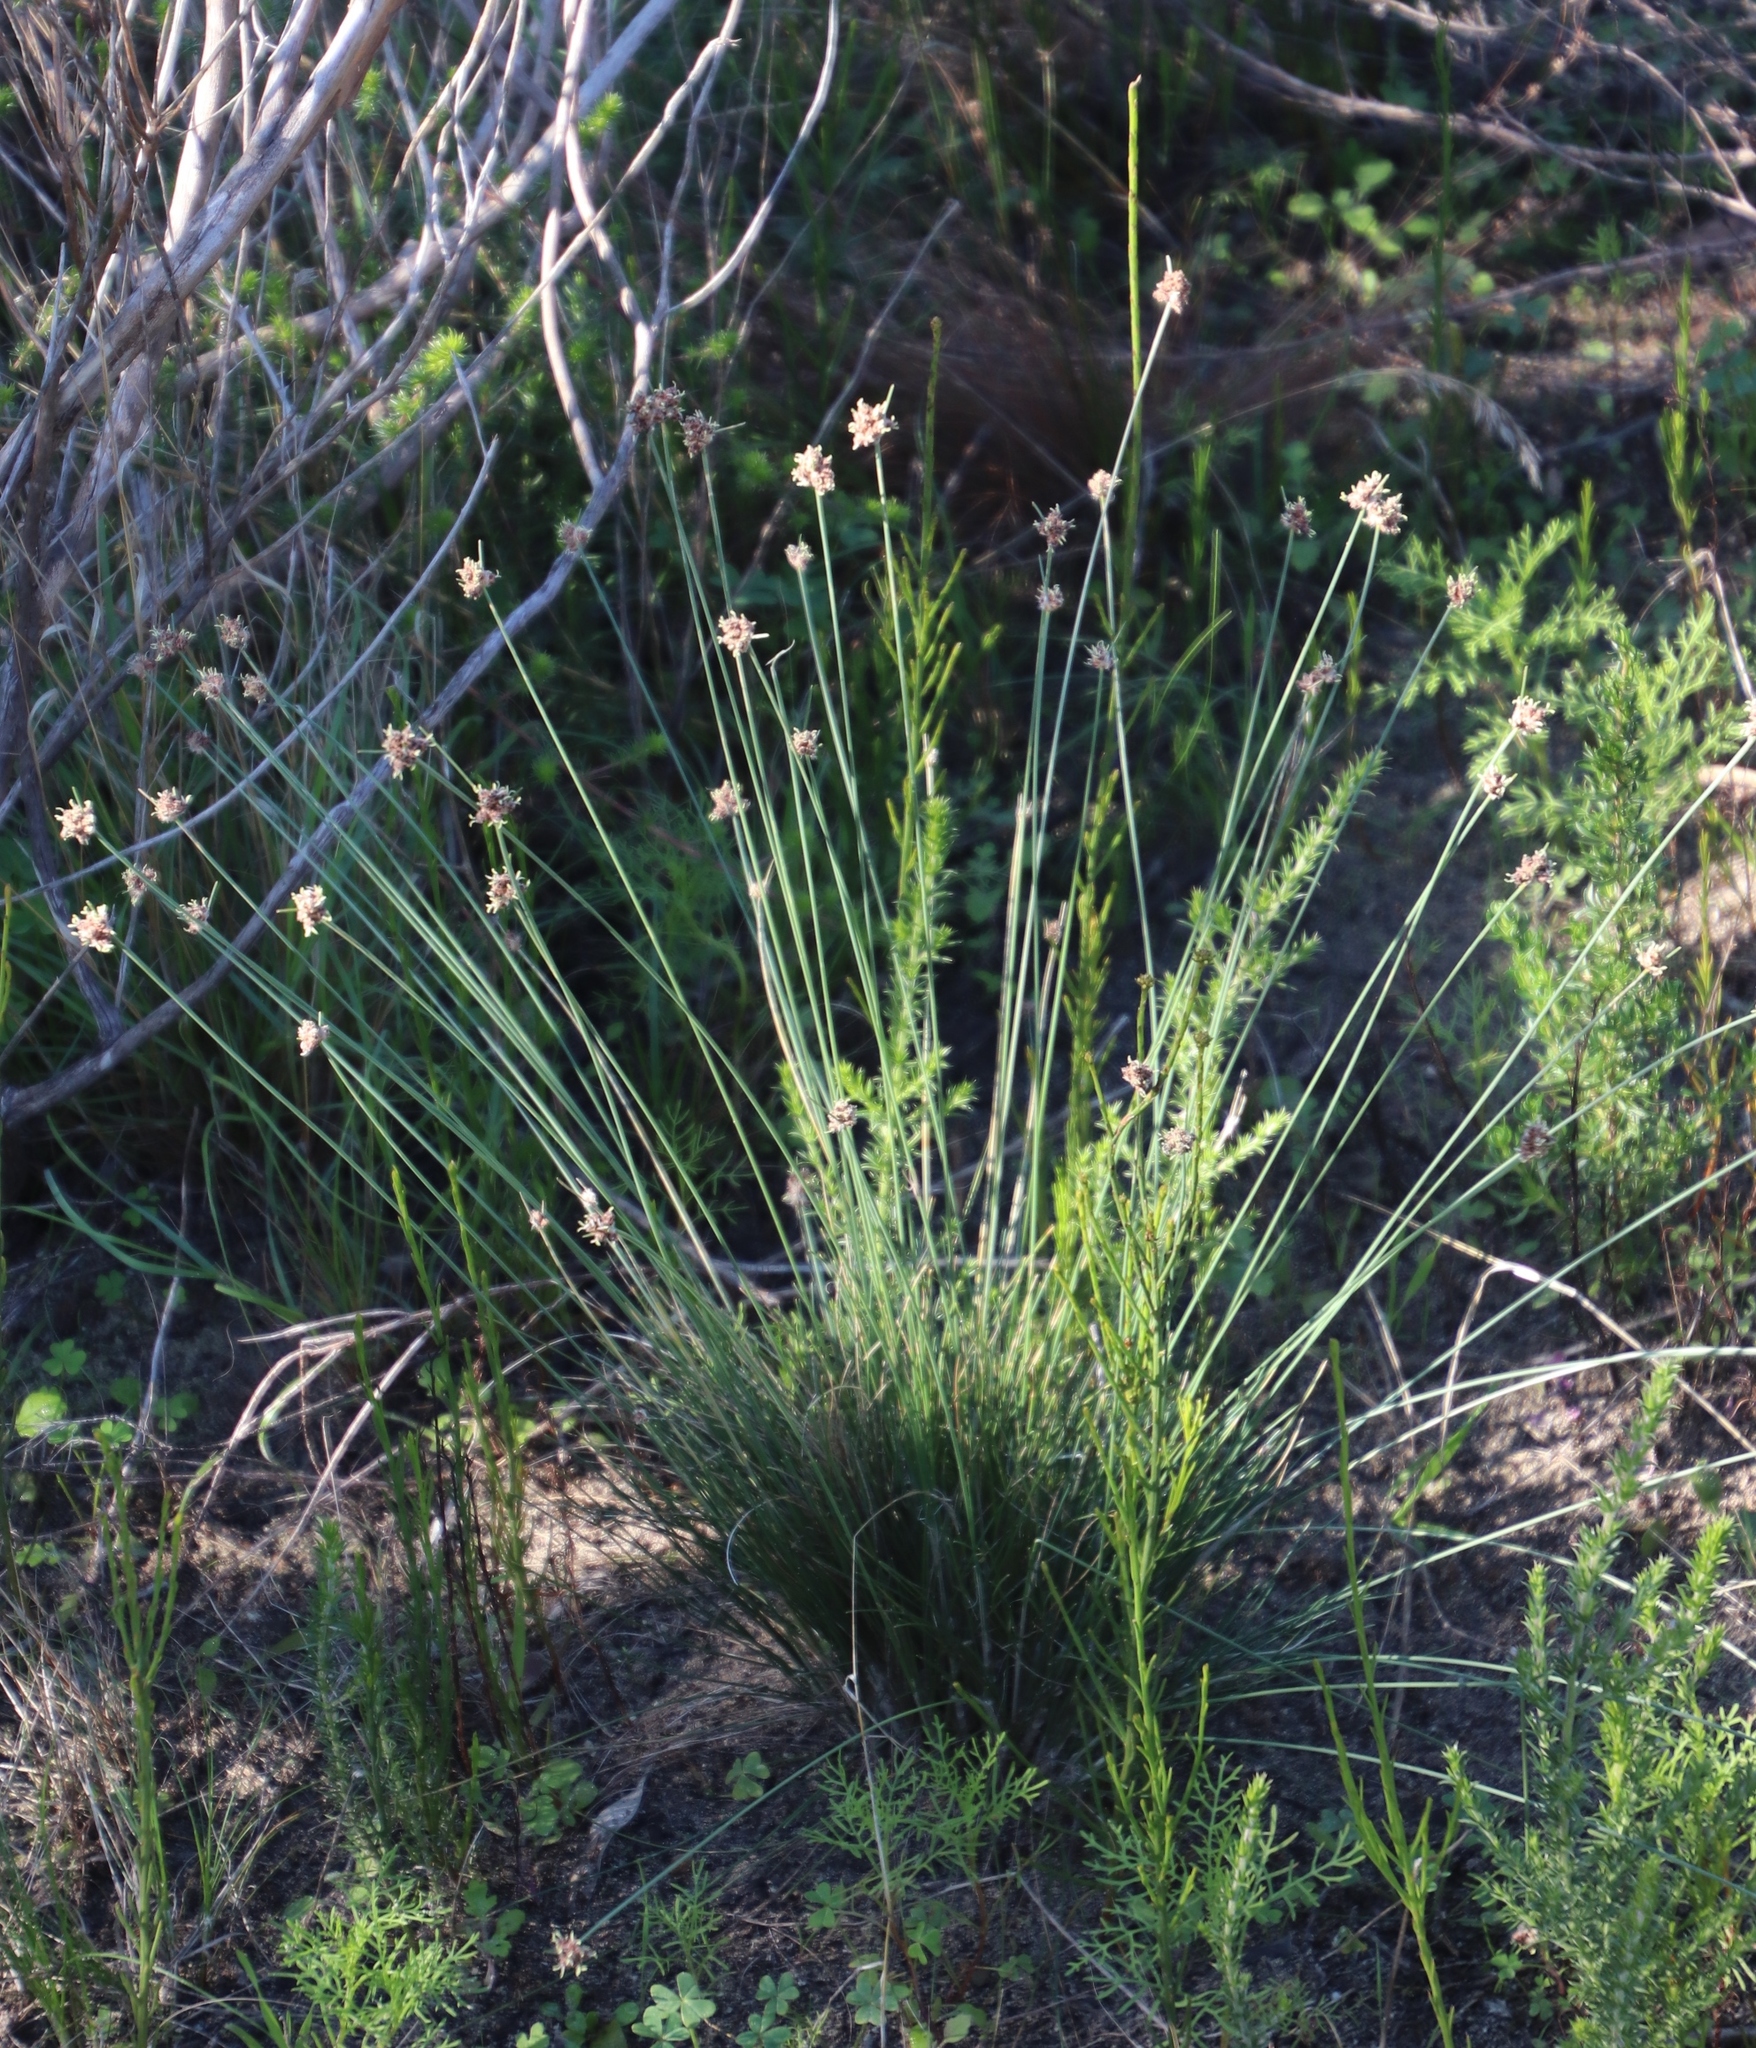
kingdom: Plantae
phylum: Tracheophyta
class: Liliopsida
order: Poales
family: Cyperaceae
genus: Ficinia
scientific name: Ficinia paradoxa
